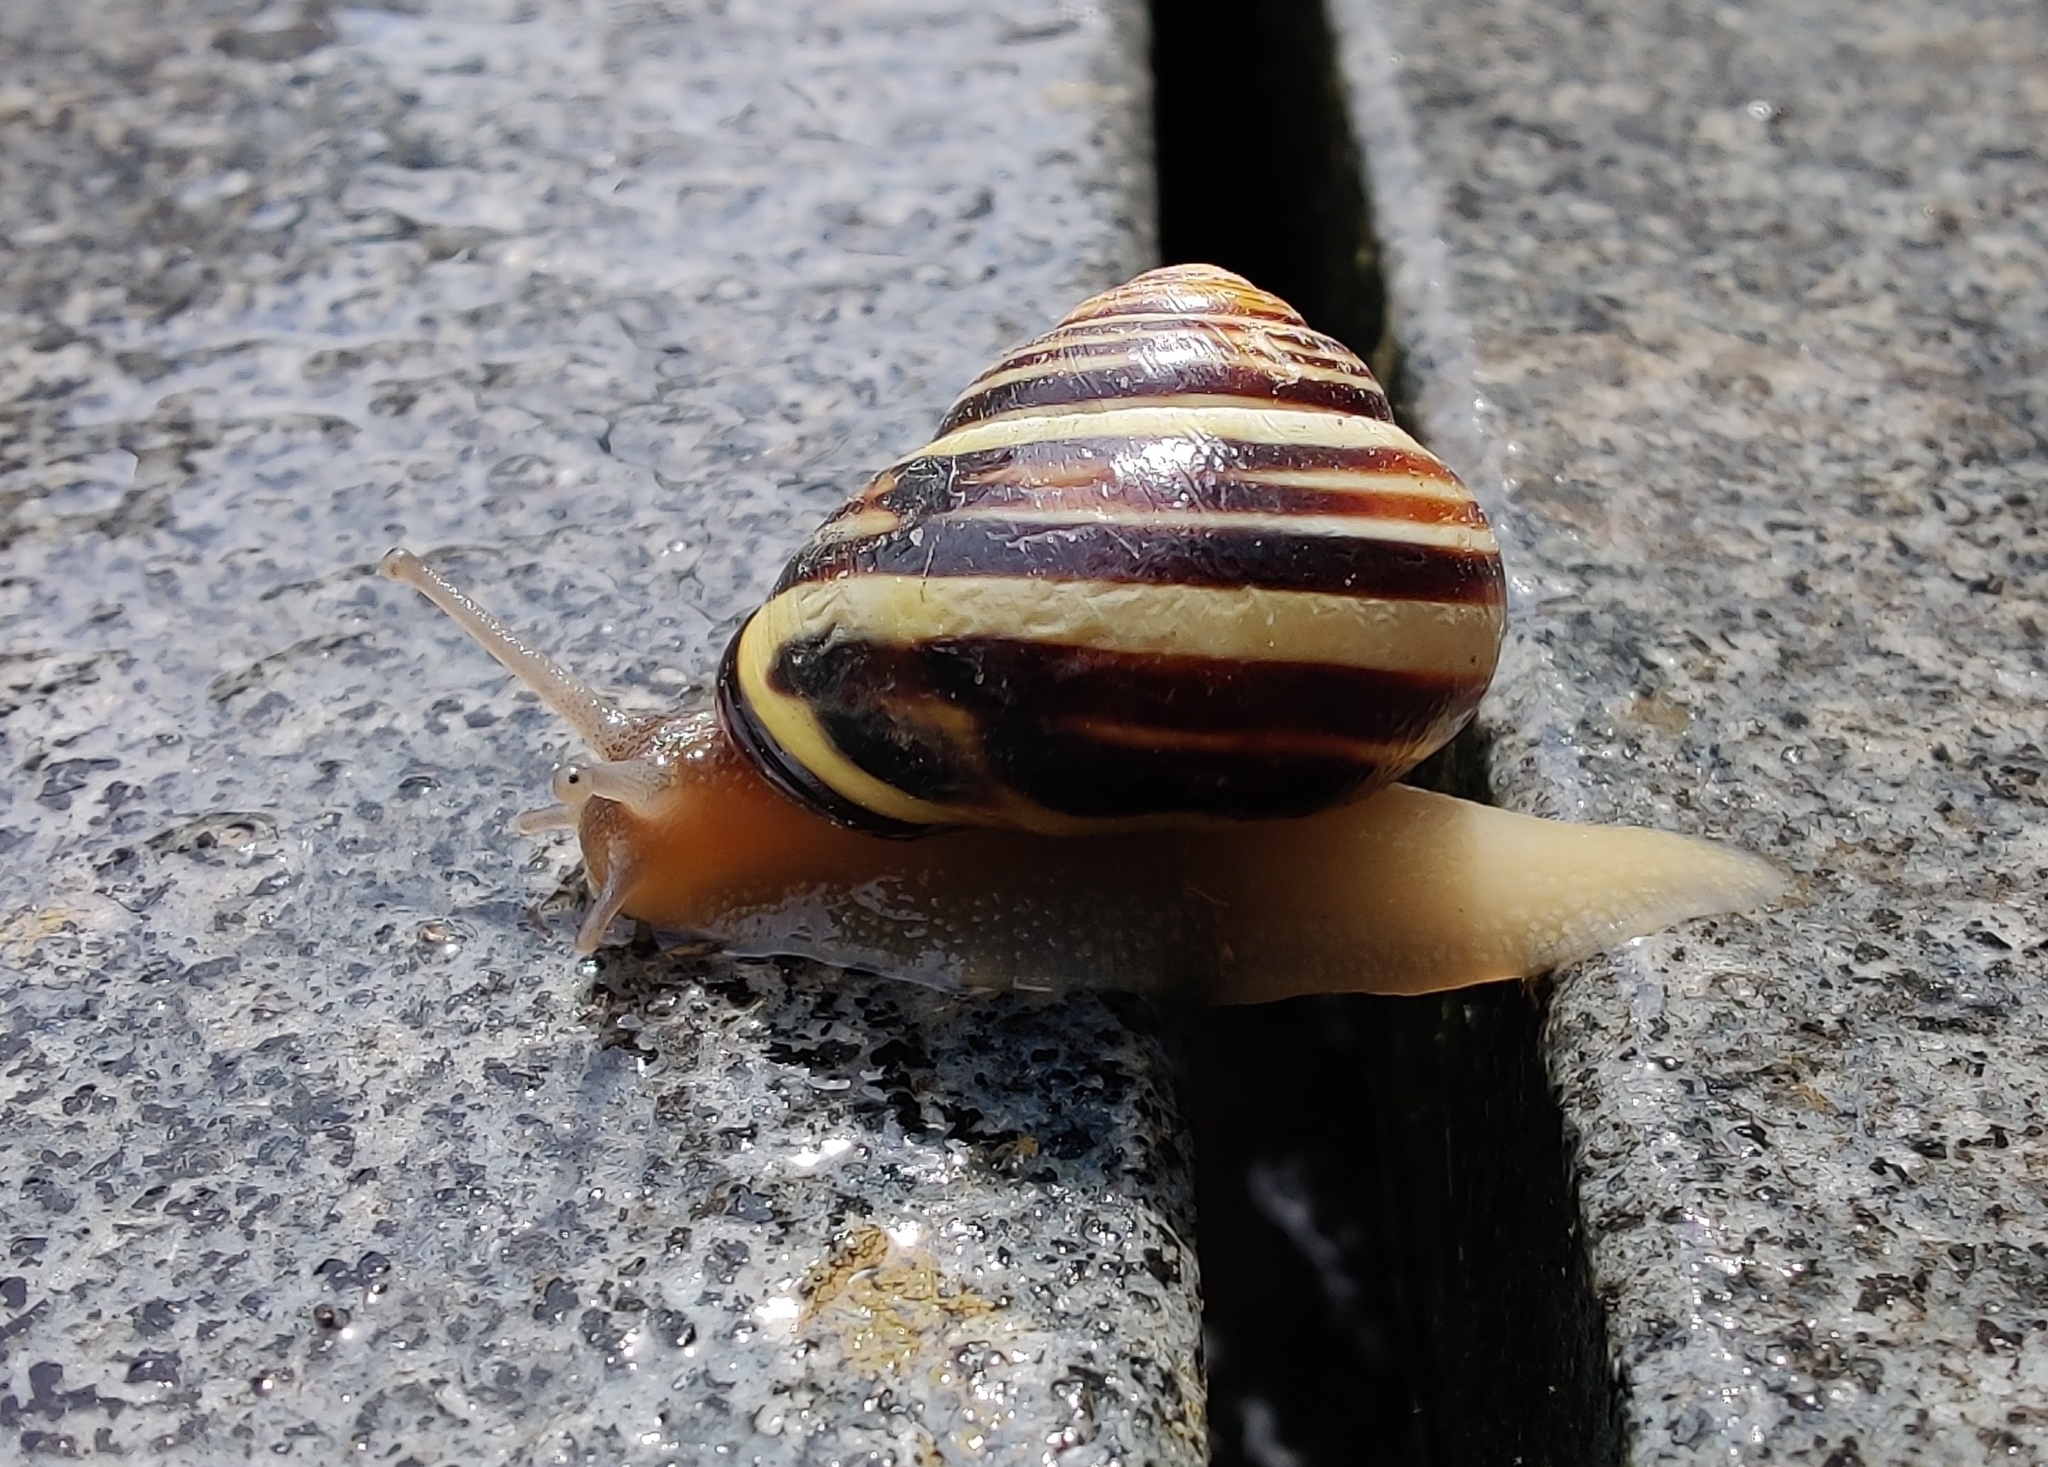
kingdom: Animalia
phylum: Mollusca
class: Gastropoda
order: Stylommatophora
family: Helicidae
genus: Cepaea
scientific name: Cepaea nemoralis
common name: Grovesnail
